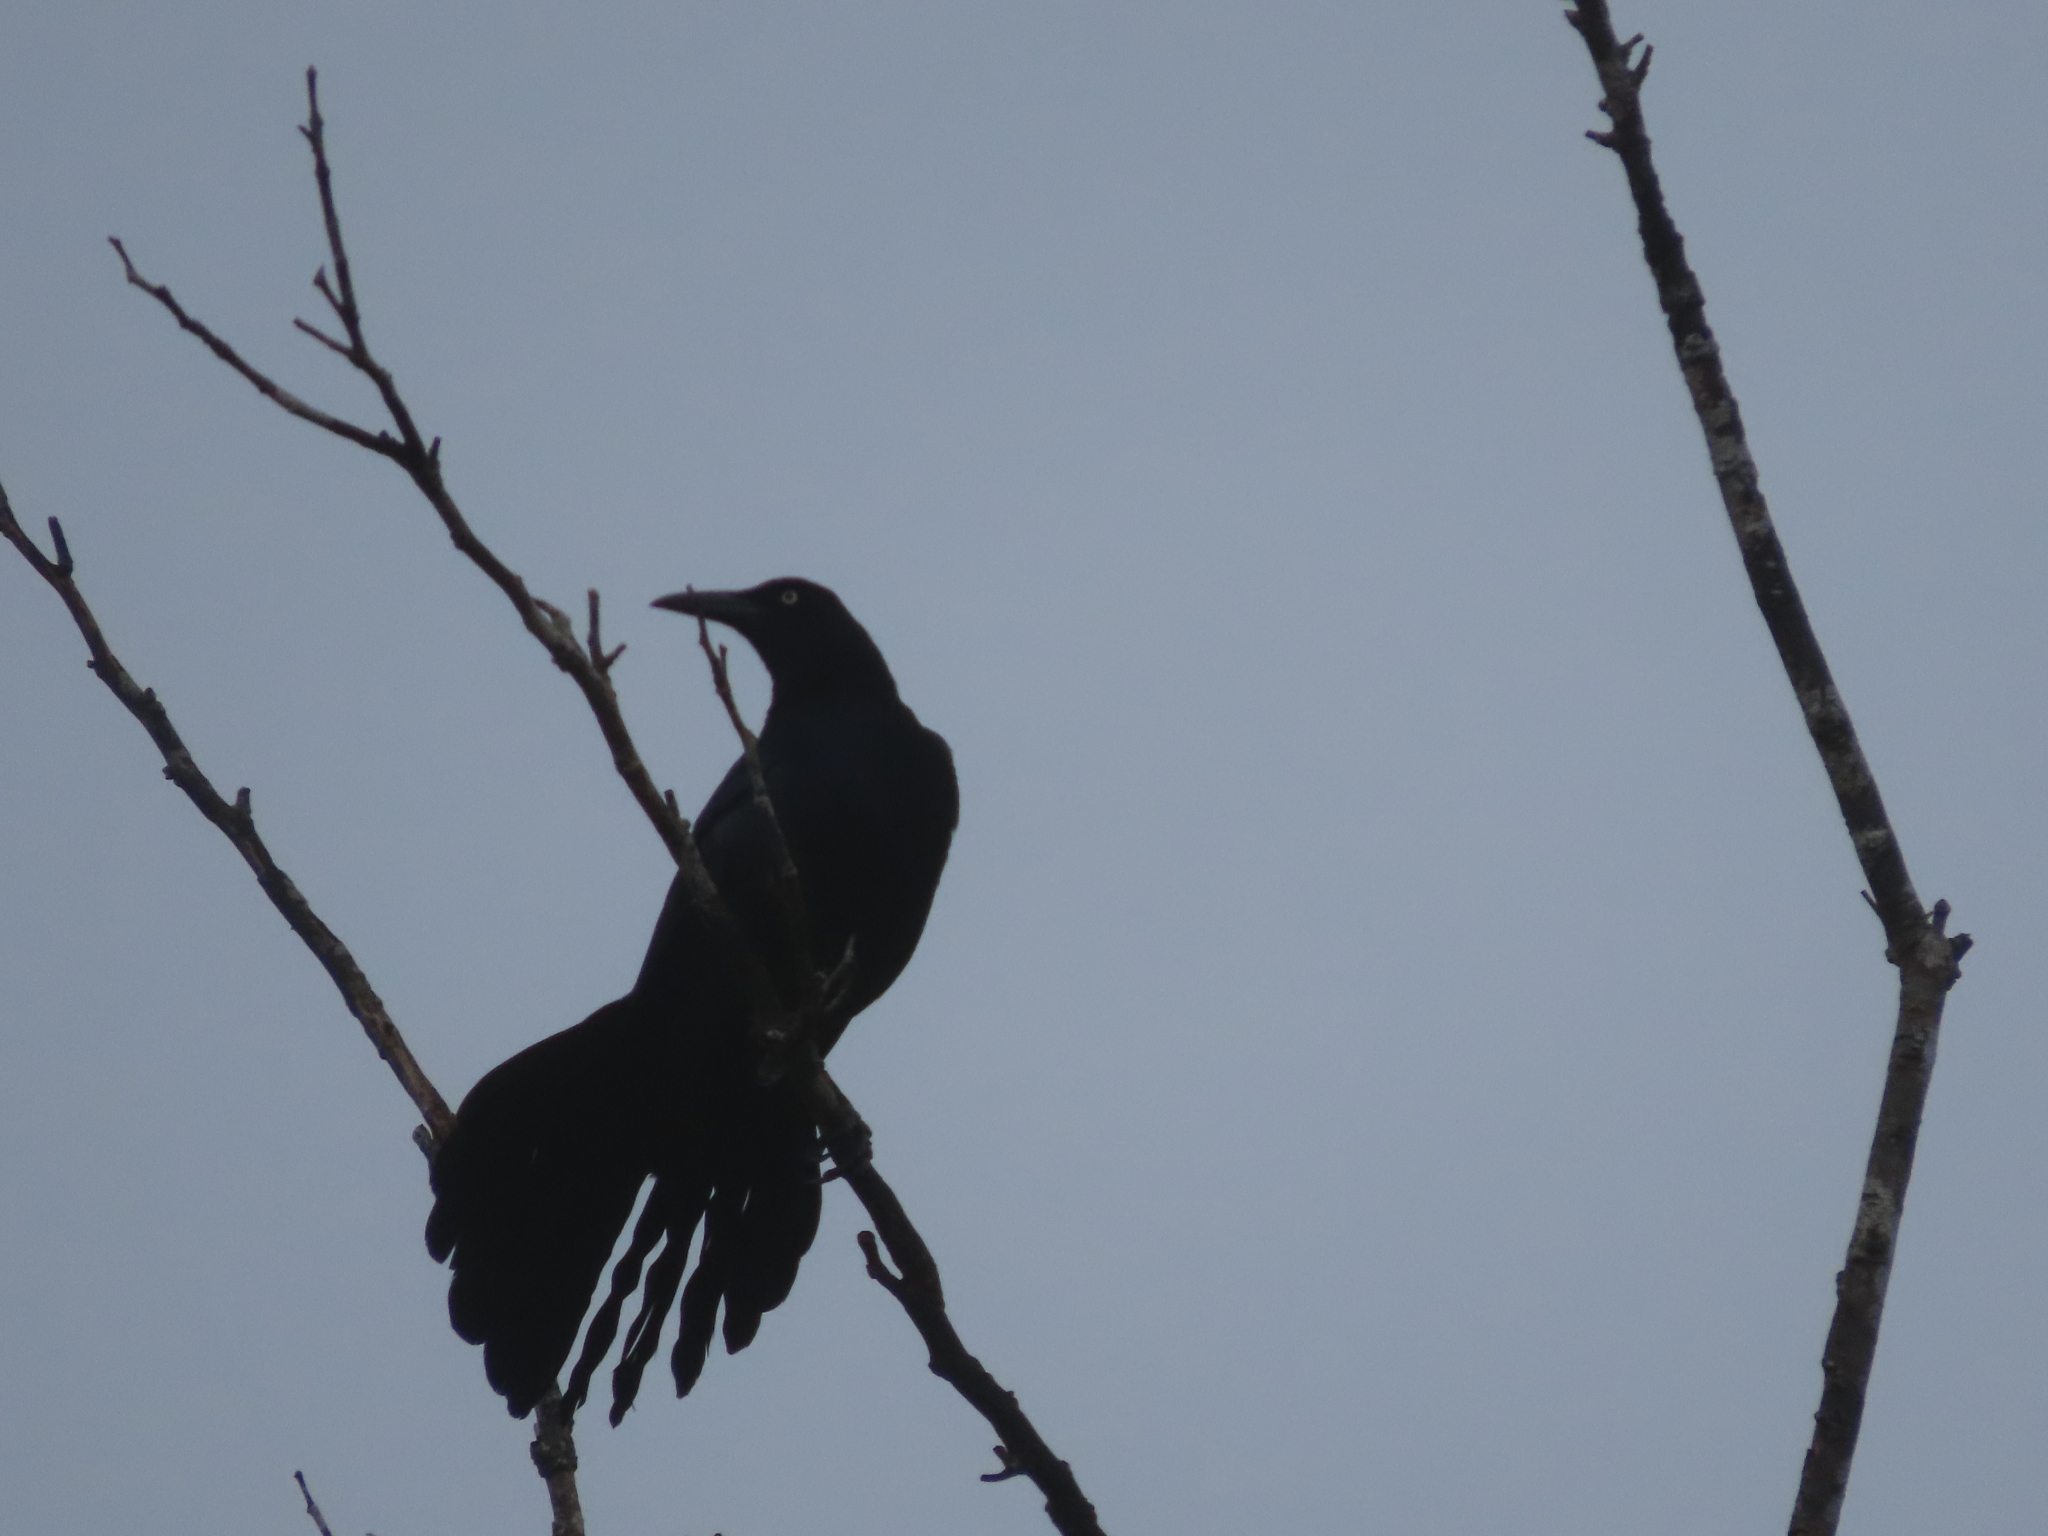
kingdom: Animalia
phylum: Chordata
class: Aves
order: Passeriformes
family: Icteridae
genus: Quiscalus
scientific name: Quiscalus mexicanus
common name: Great-tailed grackle
